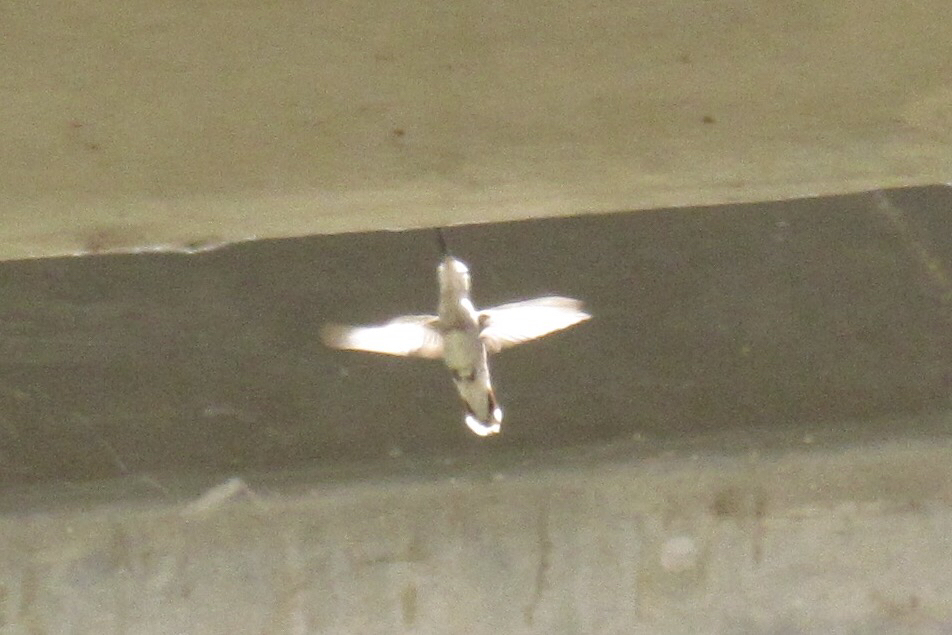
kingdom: Animalia
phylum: Chordata
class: Aves
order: Apodiformes
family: Trochilidae
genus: Calypte
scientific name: Calypte costae
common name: Costa's hummingbird
